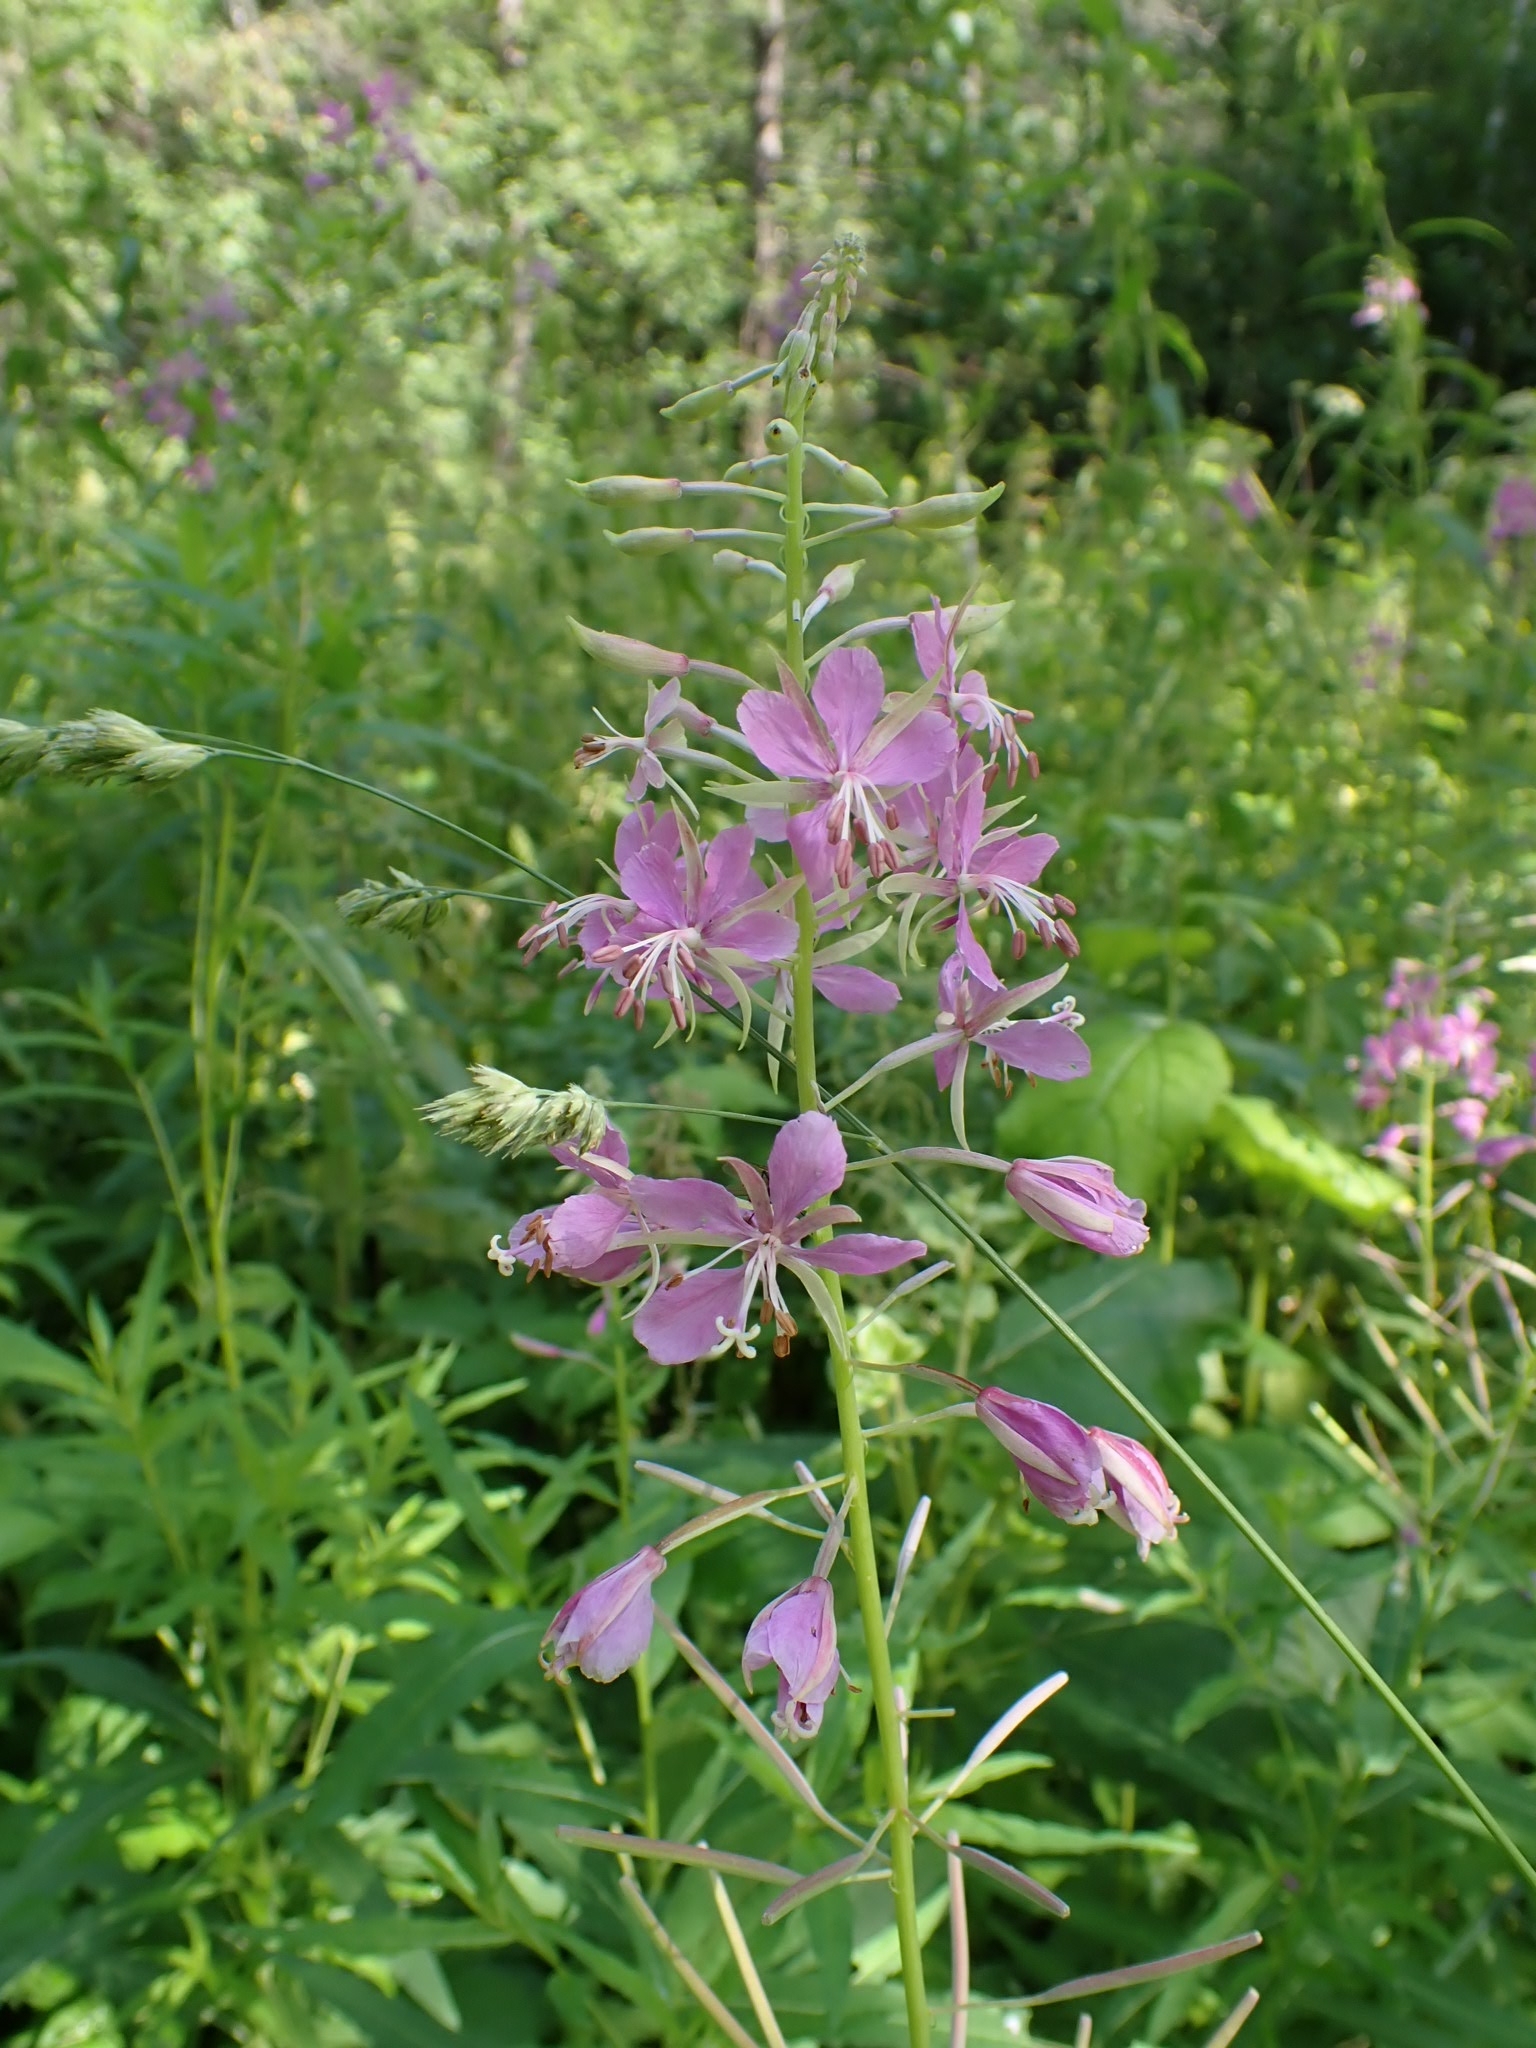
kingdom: Plantae
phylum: Tracheophyta
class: Magnoliopsida
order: Myrtales
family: Onagraceae
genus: Chamaenerion
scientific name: Chamaenerion angustifolium
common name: Fireweed
